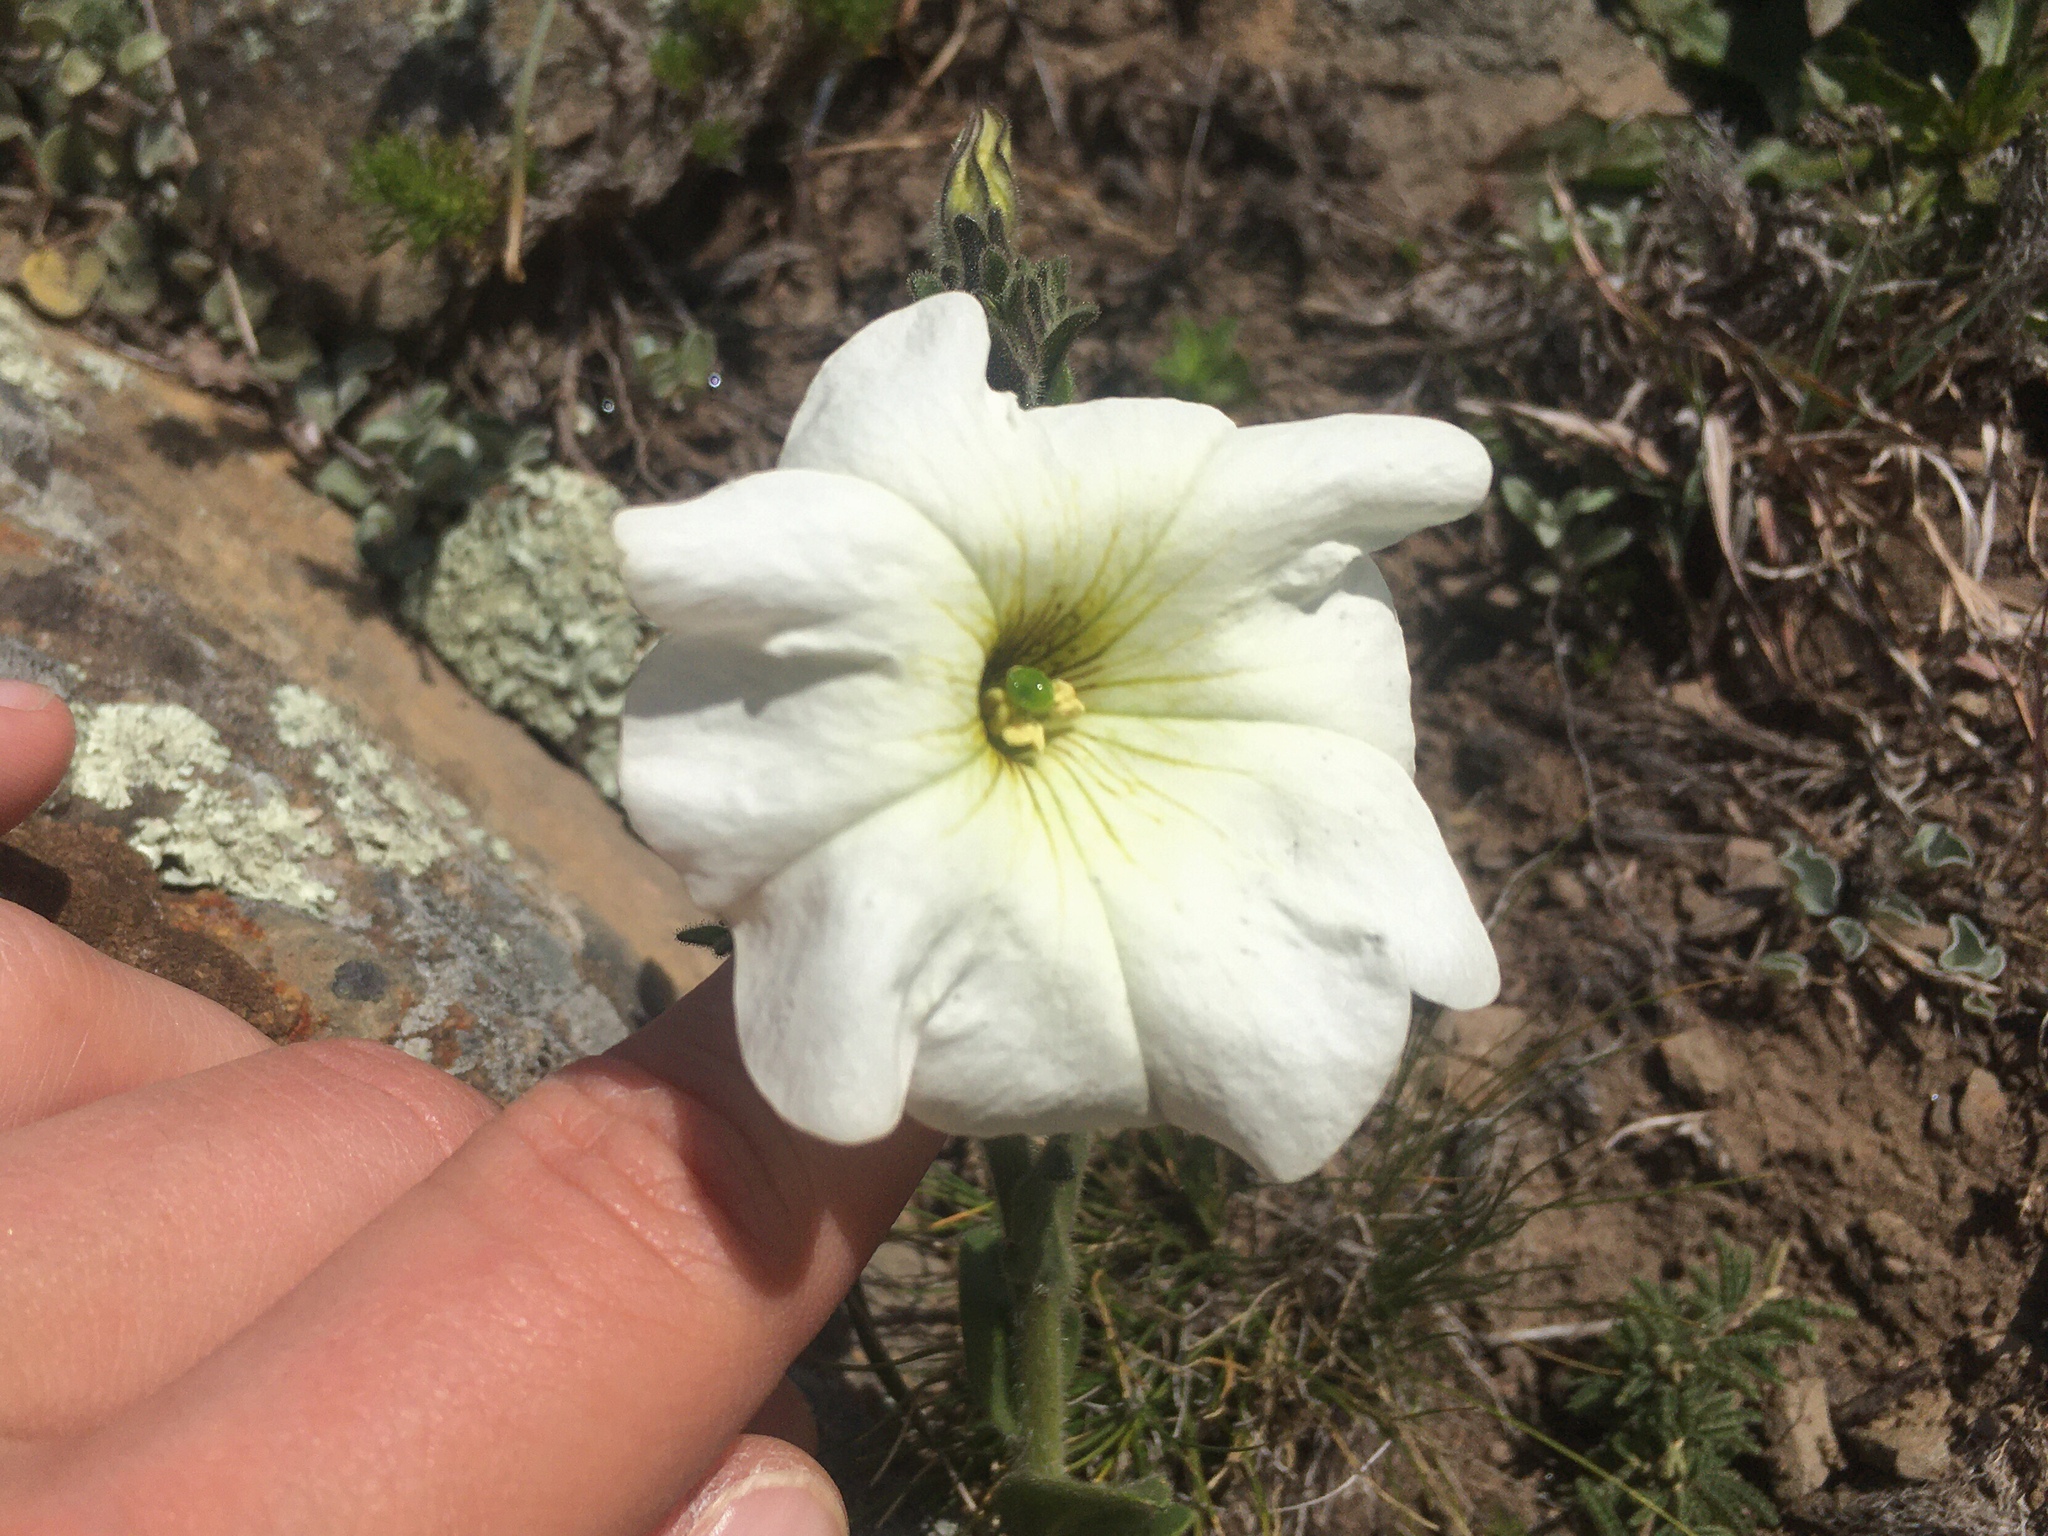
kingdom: Plantae
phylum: Tracheophyta
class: Magnoliopsida
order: Solanales
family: Solanaceae
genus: Petunia
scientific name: Petunia axillaris
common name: Large white petunia
